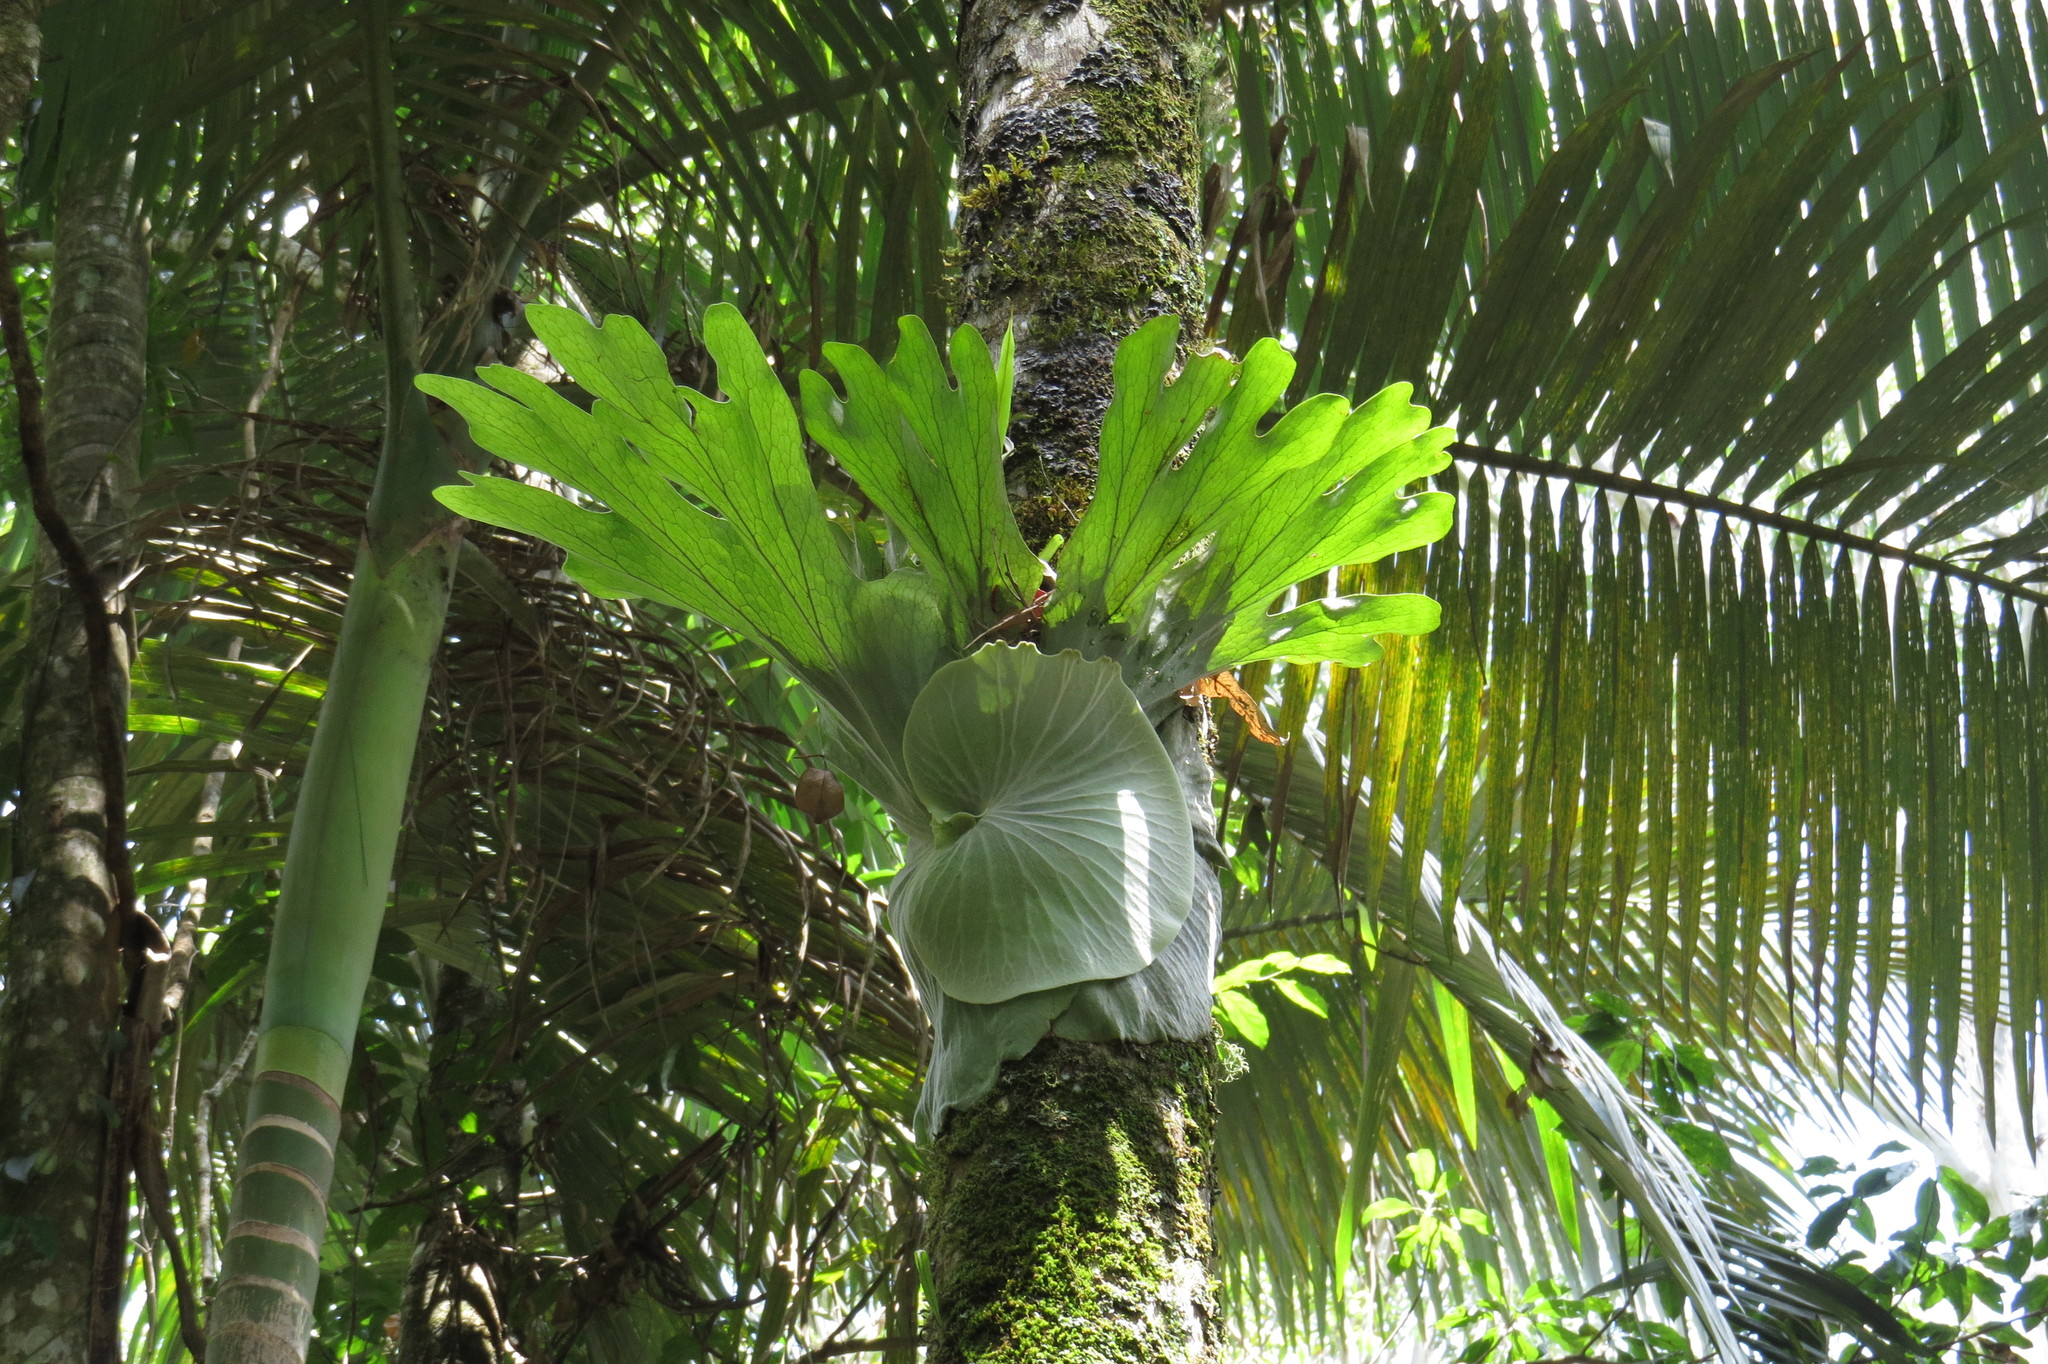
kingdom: Plantae
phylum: Tracheophyta
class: Polypodiopsida
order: Polypodiales
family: Polypodiaceae
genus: Platycerium
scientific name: Platycerium superbum
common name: Staghorn fern
